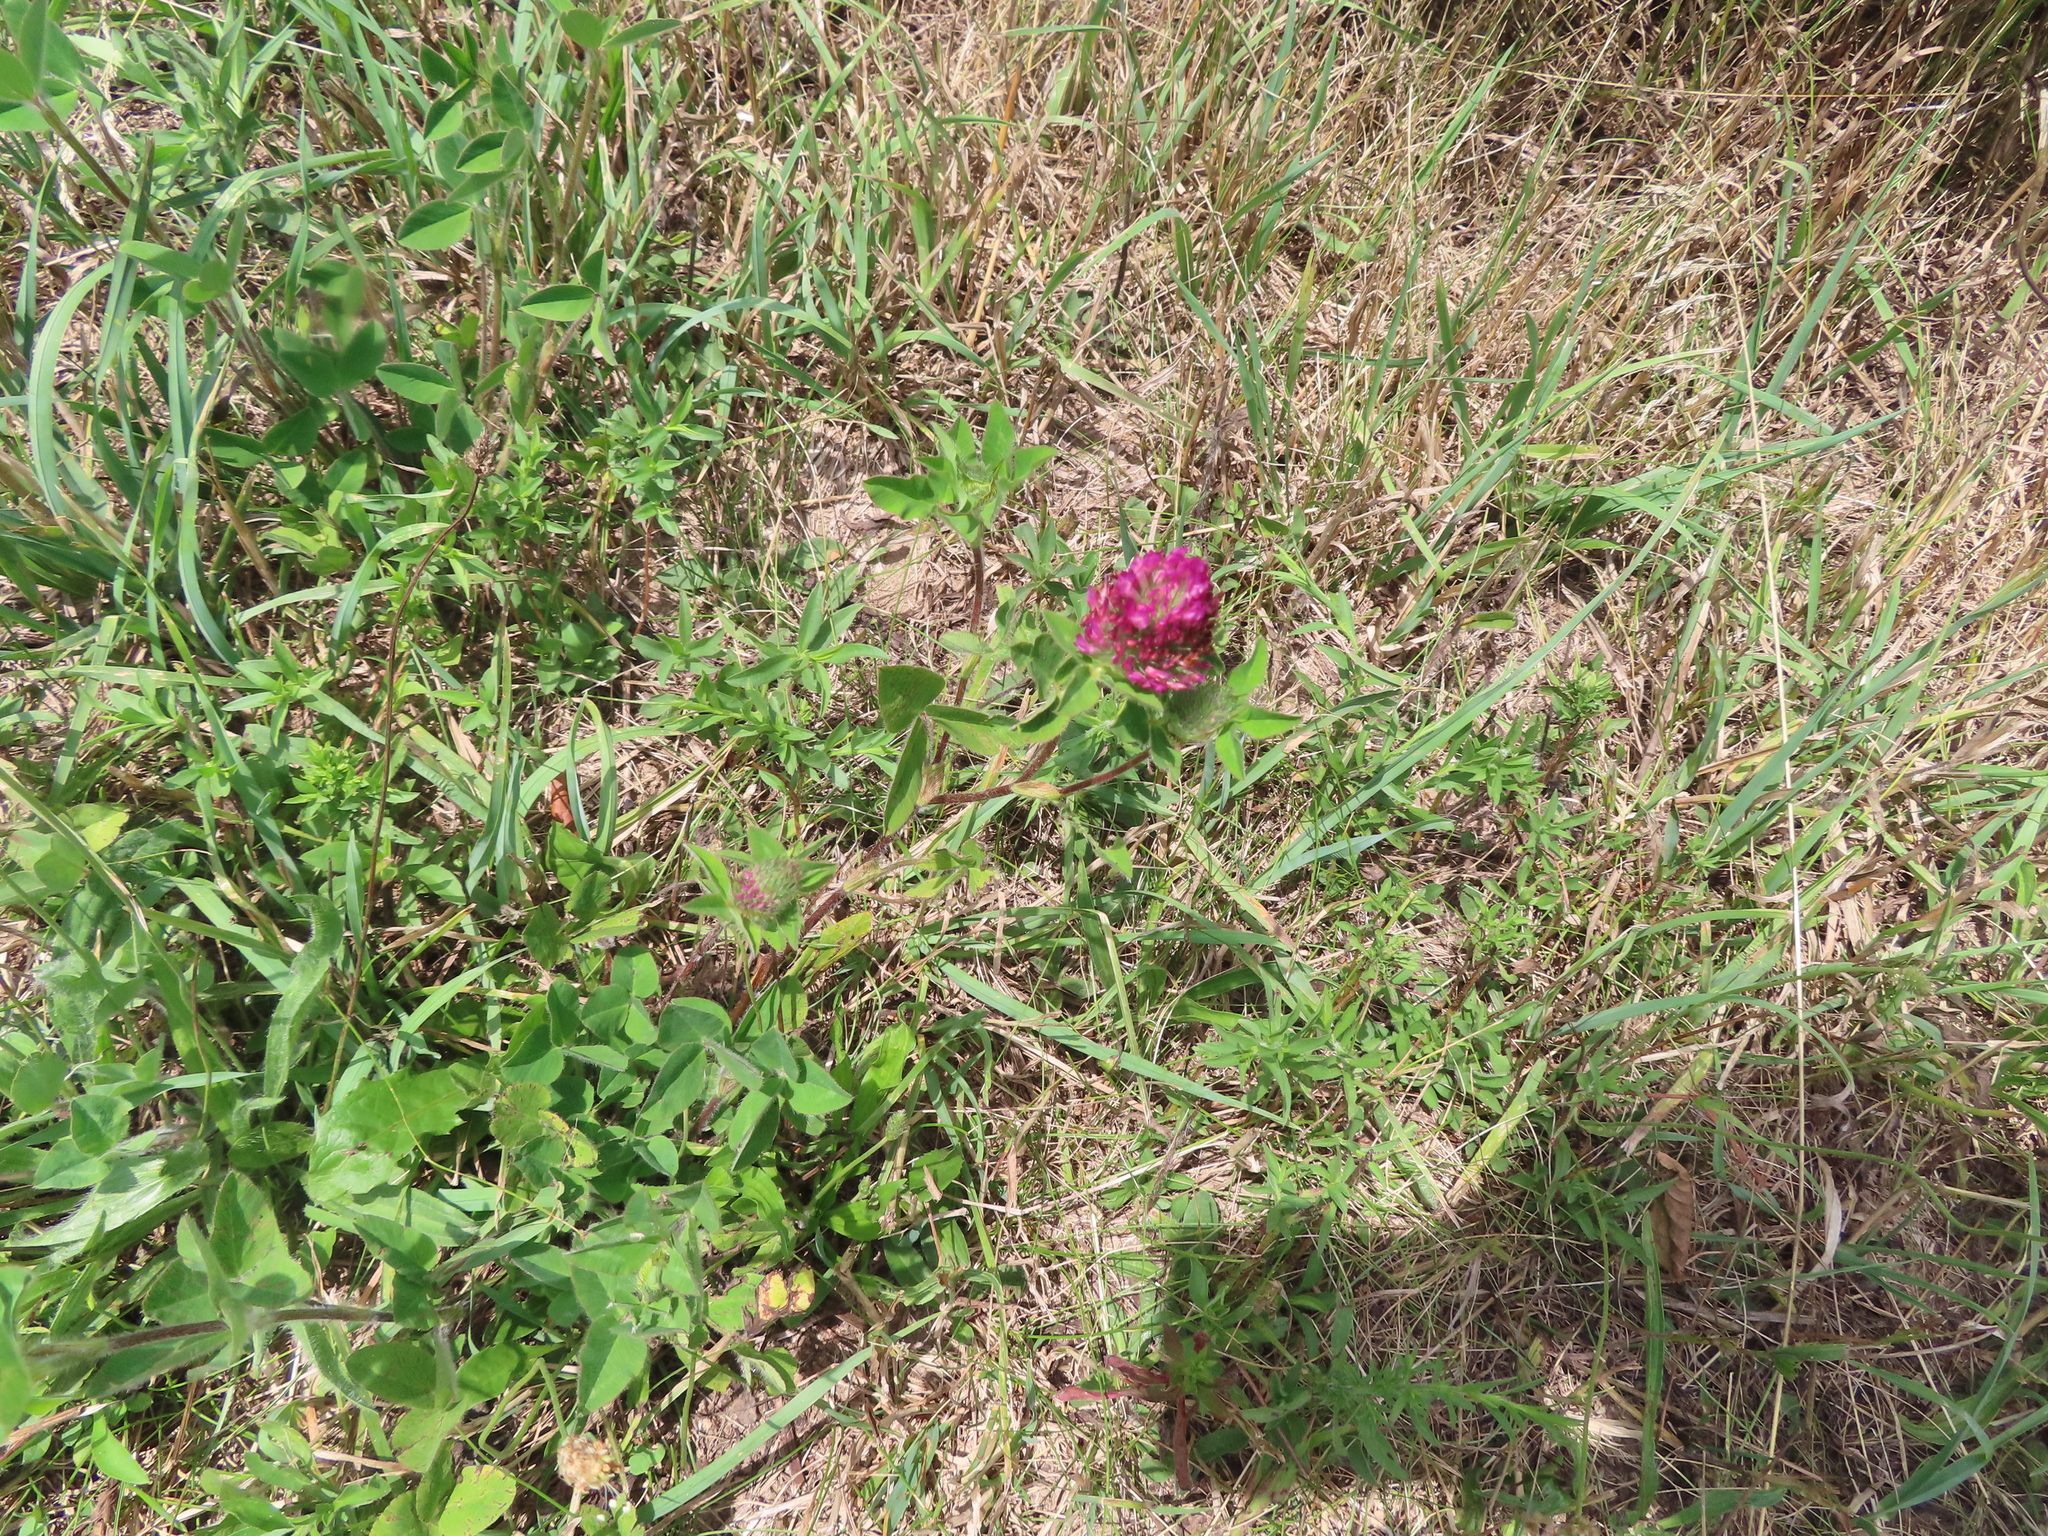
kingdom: Plantae
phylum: Tracheophyta
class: Magnoliopsida
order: Fabales
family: Fabaceae
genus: Trifolium
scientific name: Trifolium pratense
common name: Red clover
